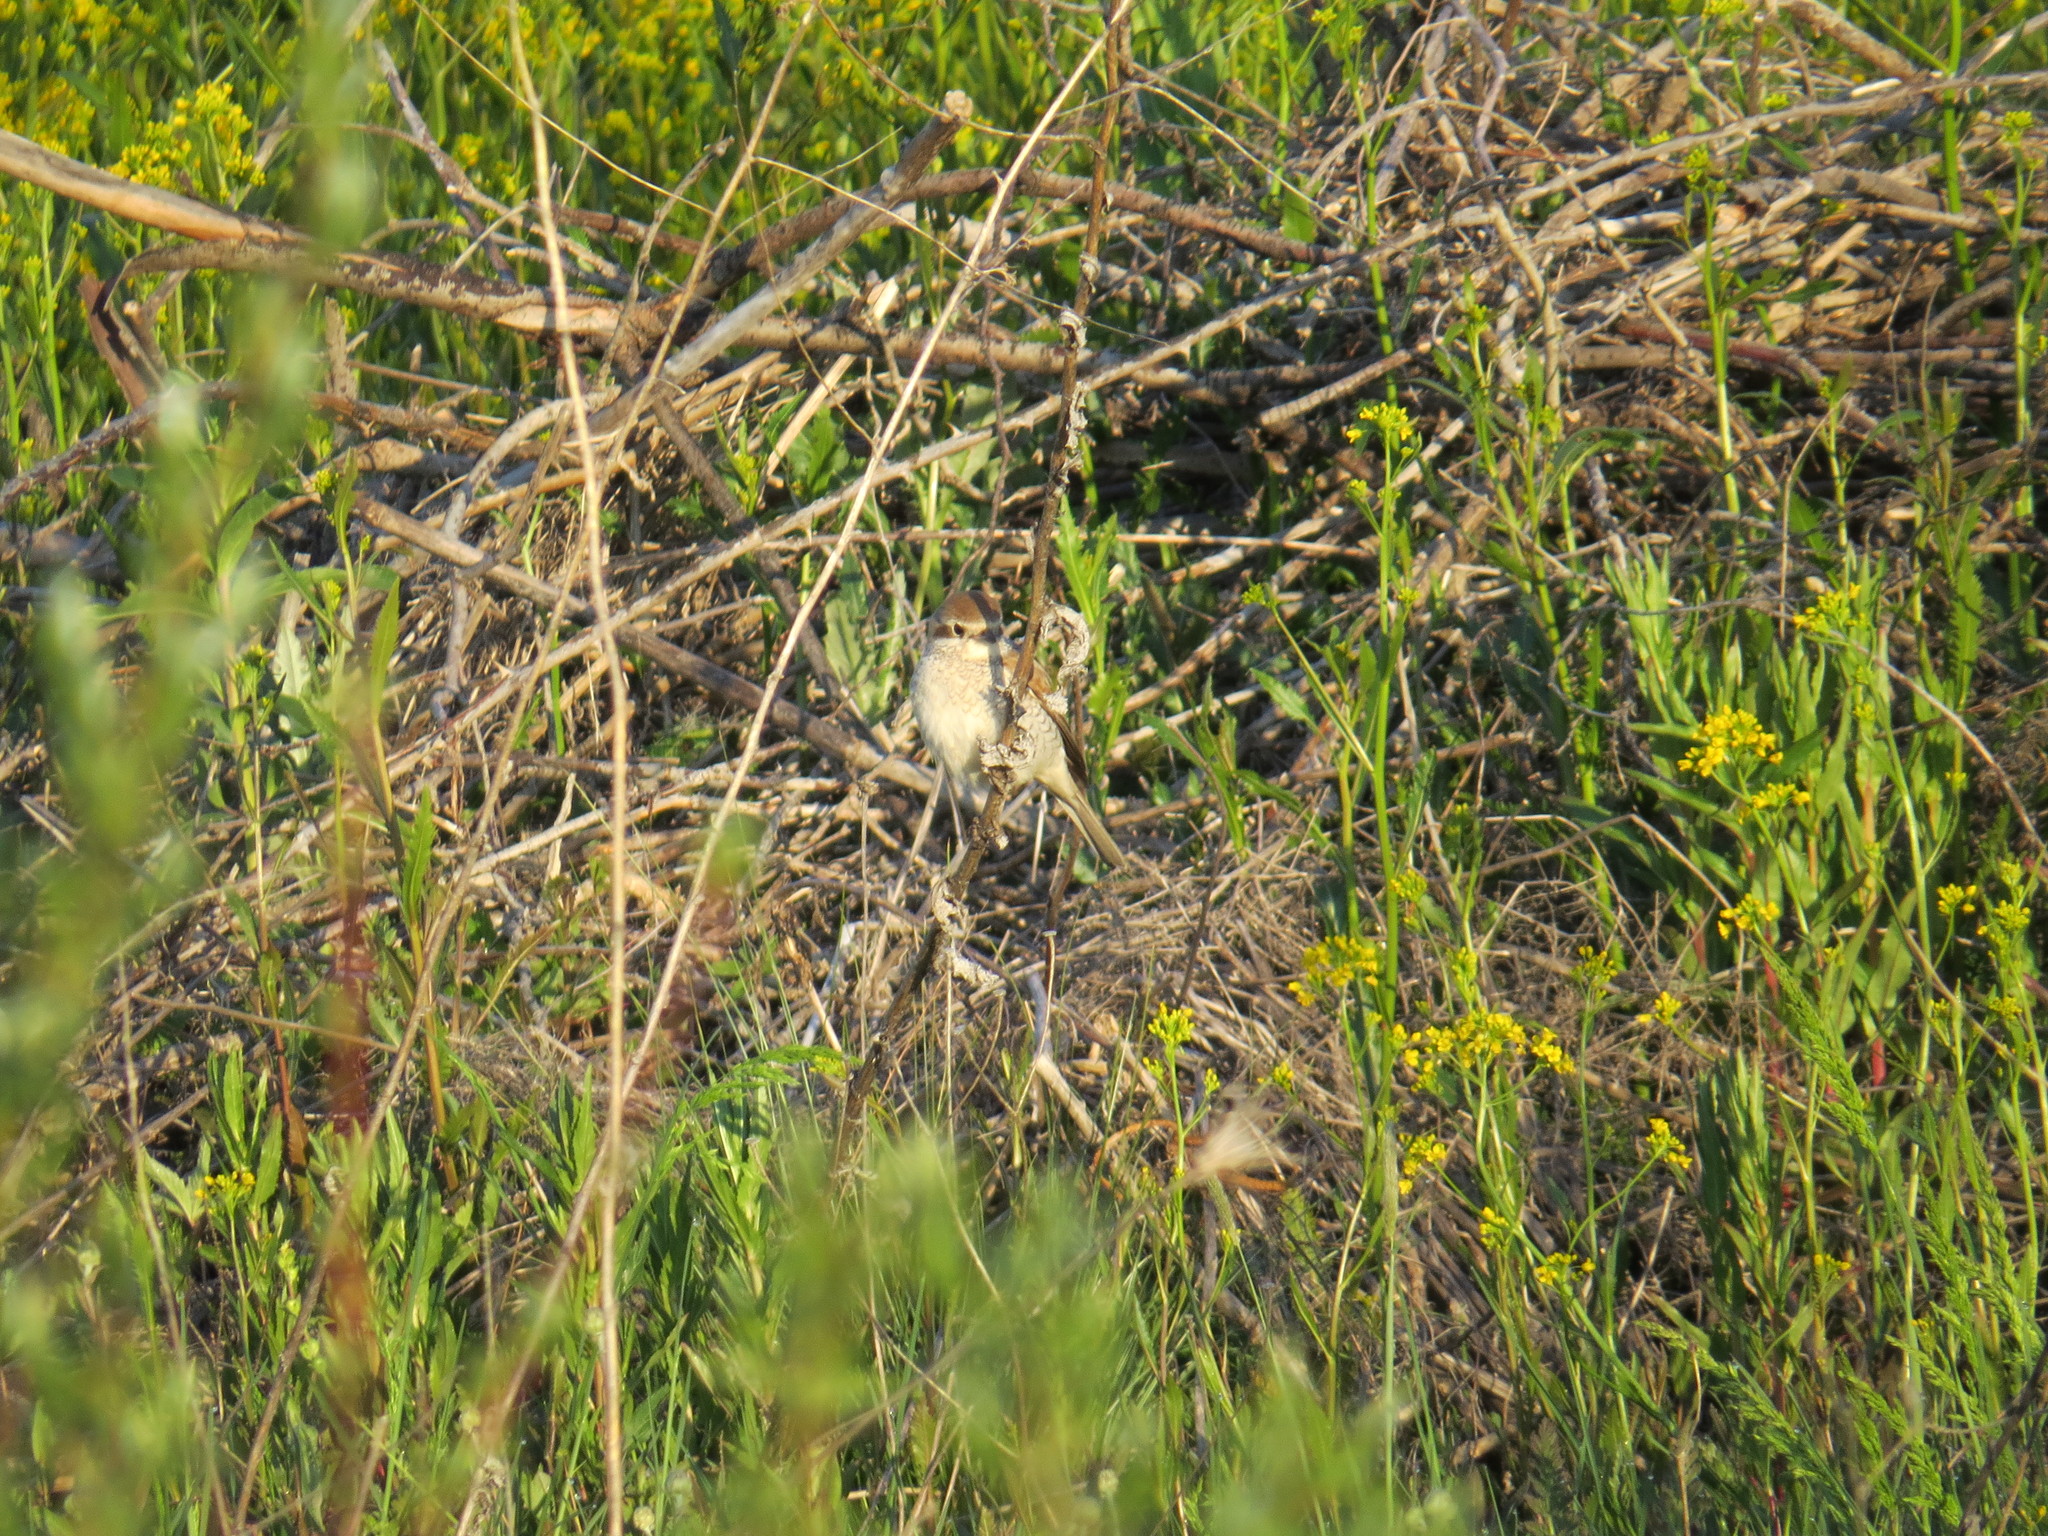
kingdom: Animalia
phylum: Chordata
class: Aves
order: Passeriformes
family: Laniidae
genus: Lanius
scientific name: Lanius collurio
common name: Red-backed shrike
